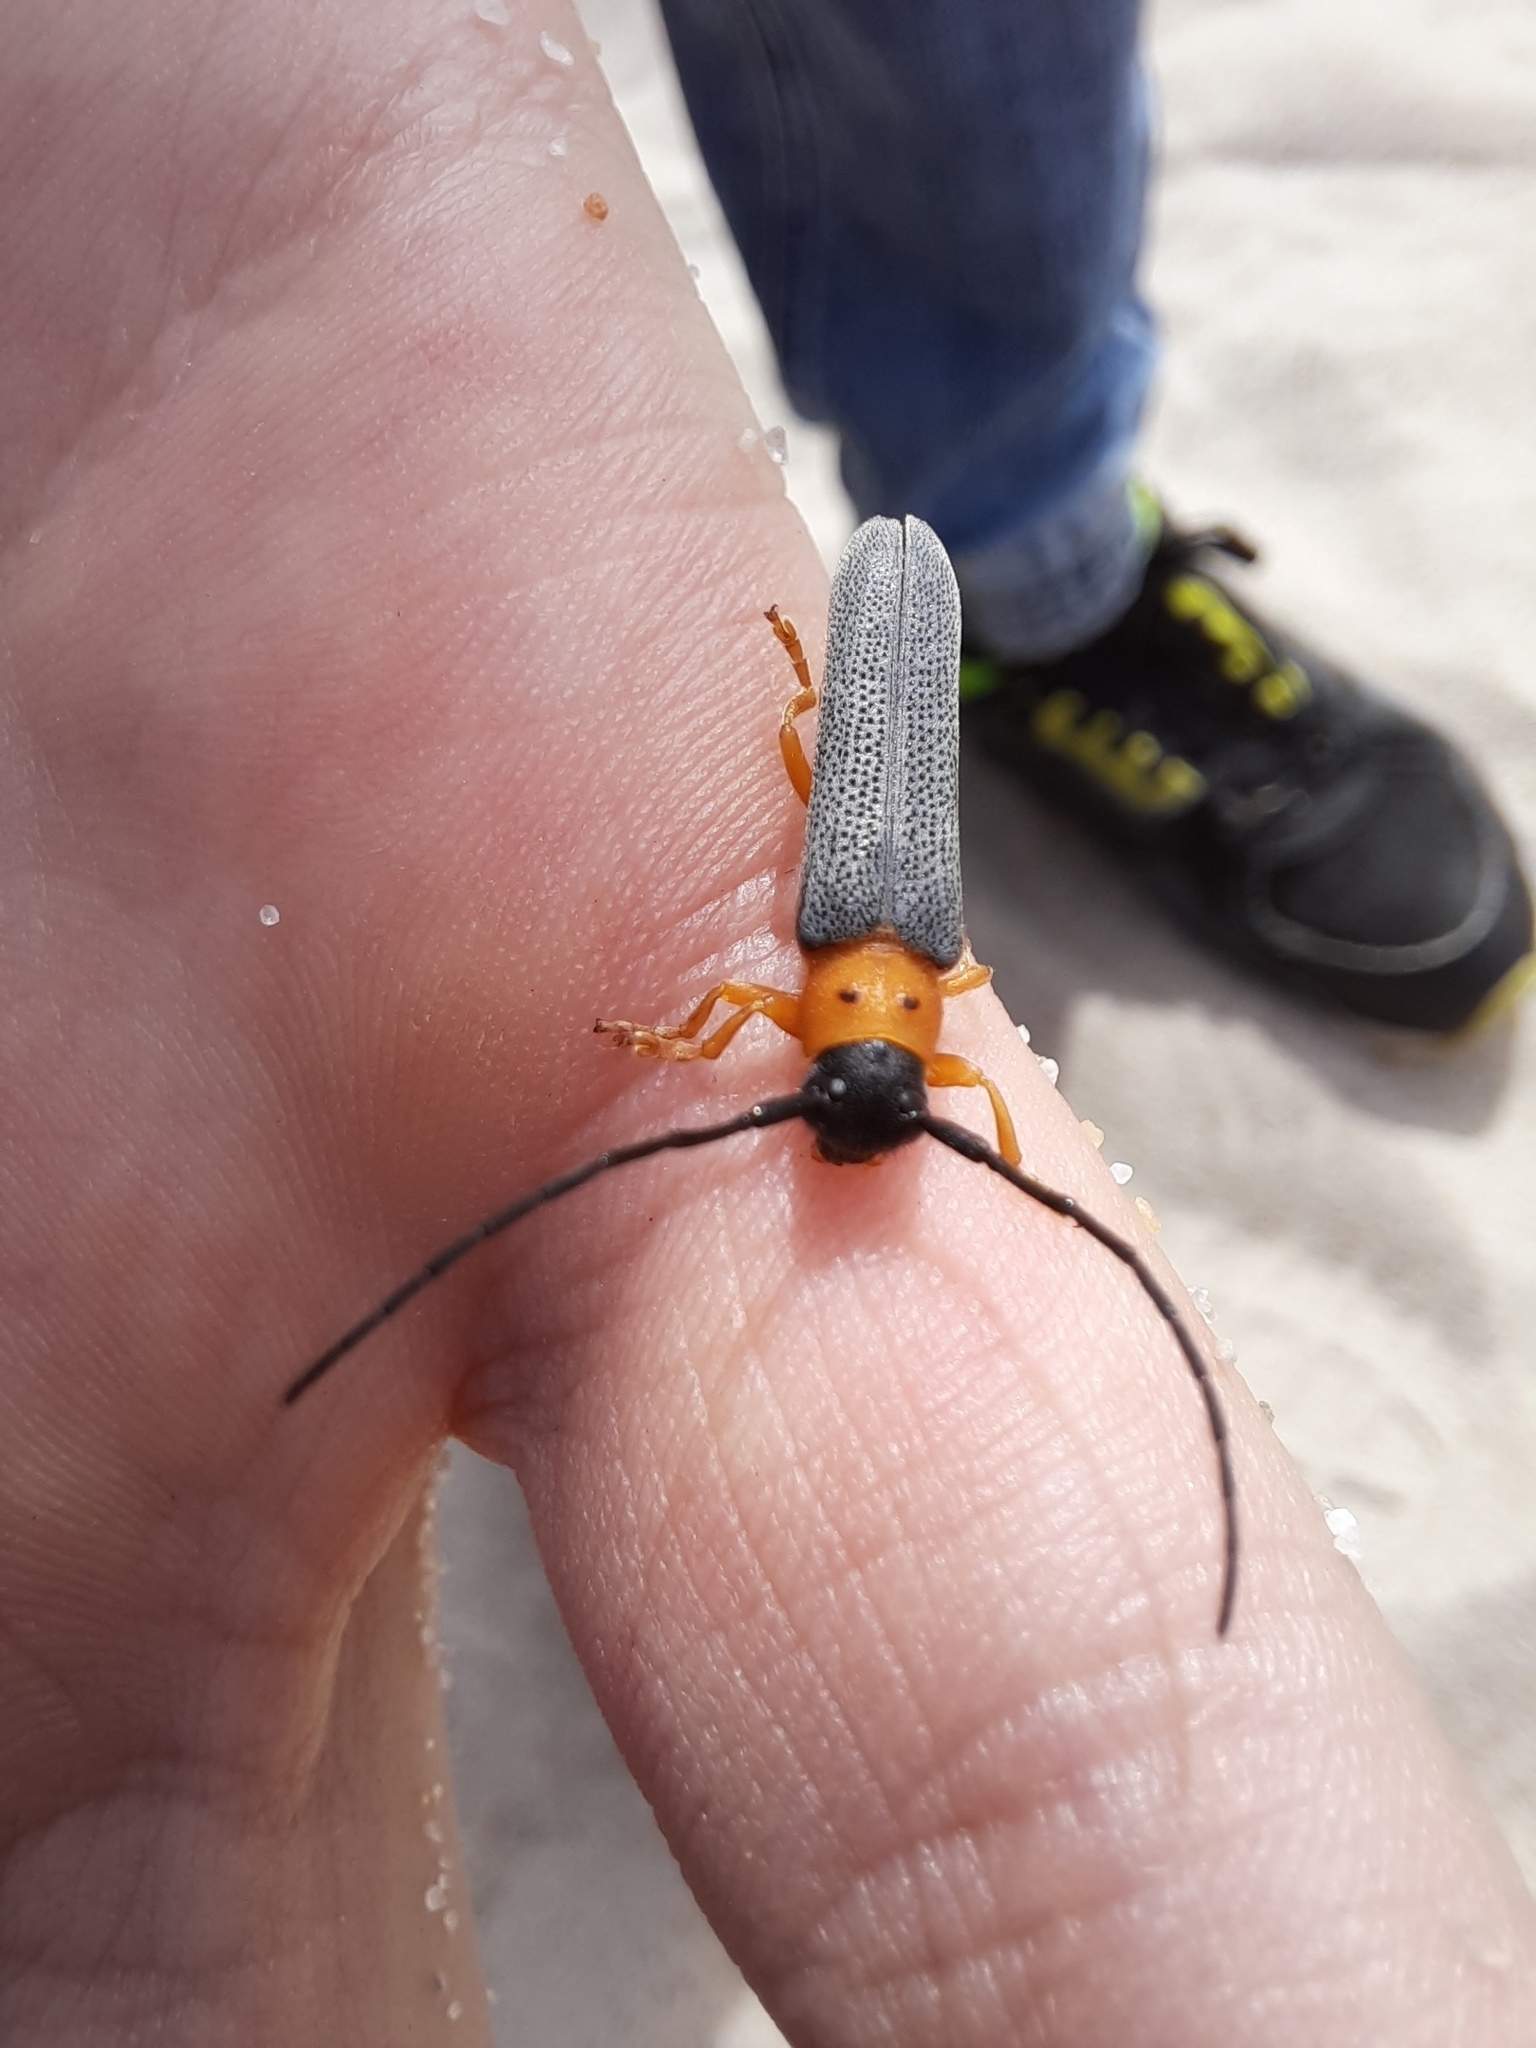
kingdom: Animalia
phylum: Arthropoda
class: Insecta
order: Coleoptera
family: Cerambycidae
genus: Oberea
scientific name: Oberea oculata
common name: Eyed longhorn beetle
